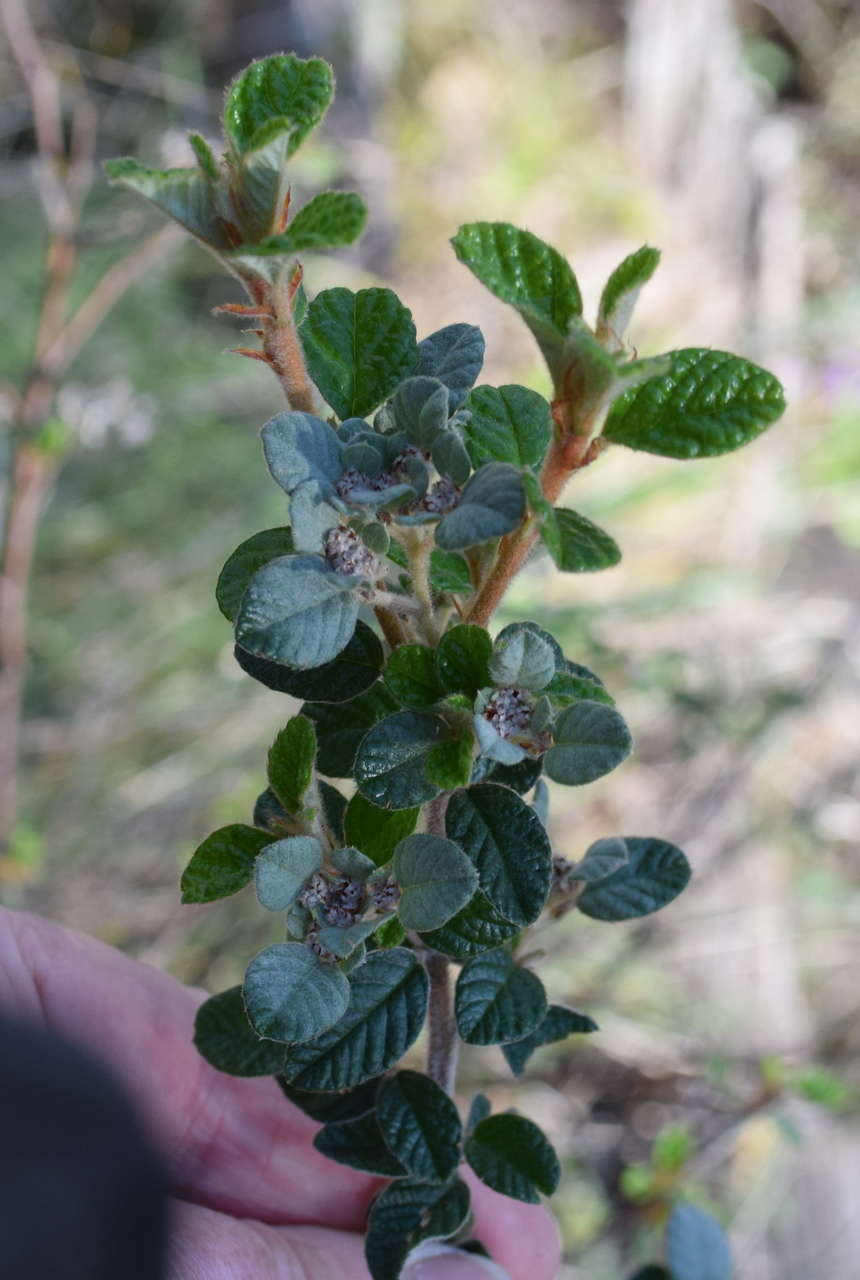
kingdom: Plantae
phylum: Tracheophyta
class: Magnoliopsida
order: Rosales
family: Rhamnaceae
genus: Spyridium
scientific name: Spyridium parvifolium
